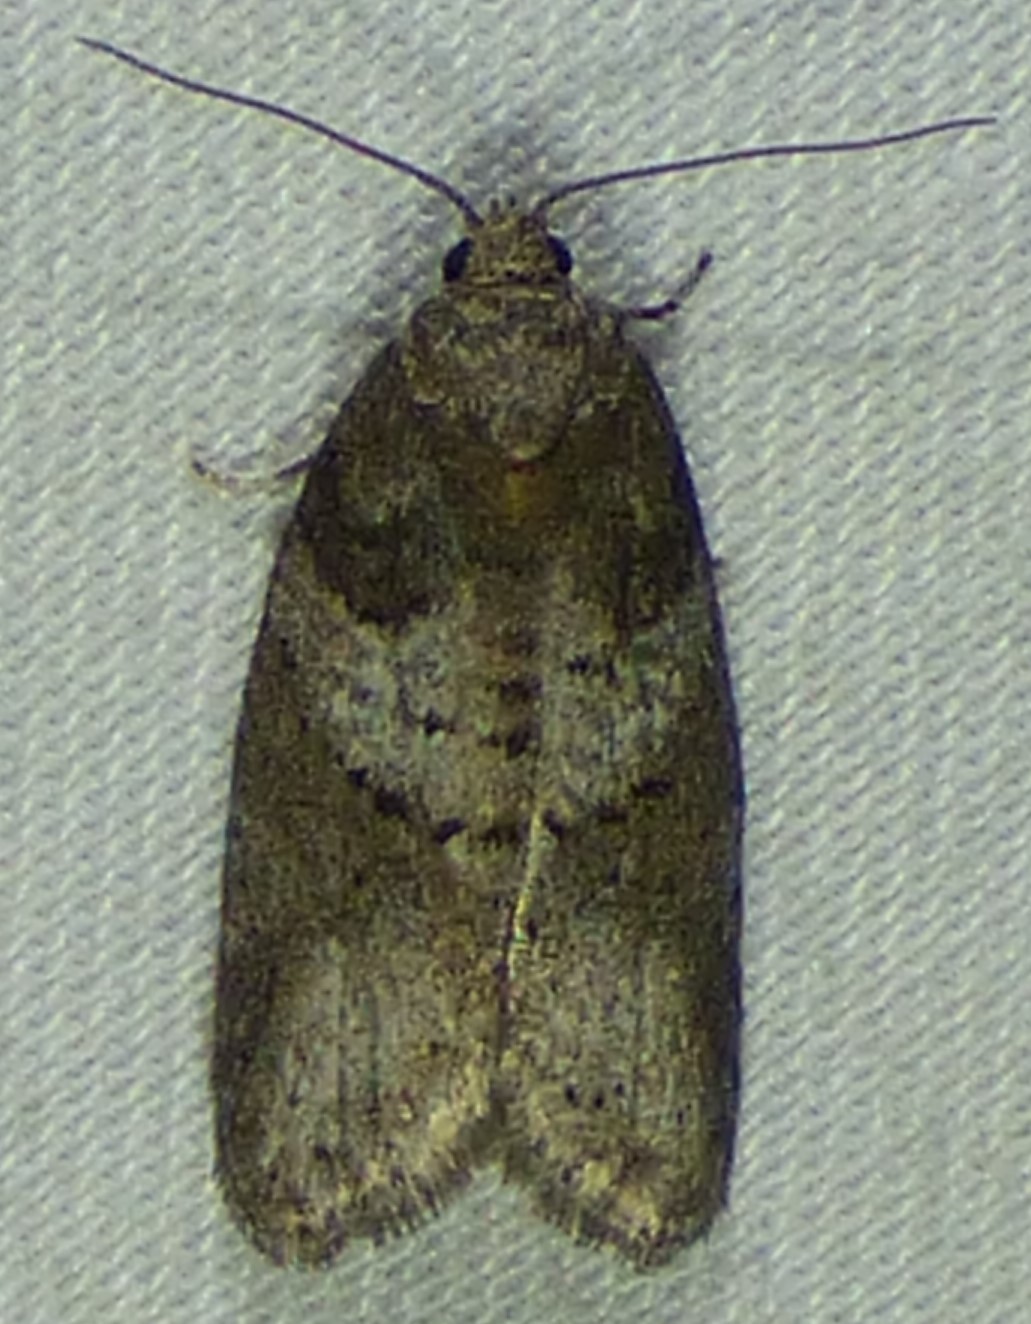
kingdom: Animalia
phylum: Arthropoda
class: Insecta
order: Lepidoptera
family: Tortricidae
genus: Decodes
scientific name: Decodes basiplagana
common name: Gray-marked tortricid
